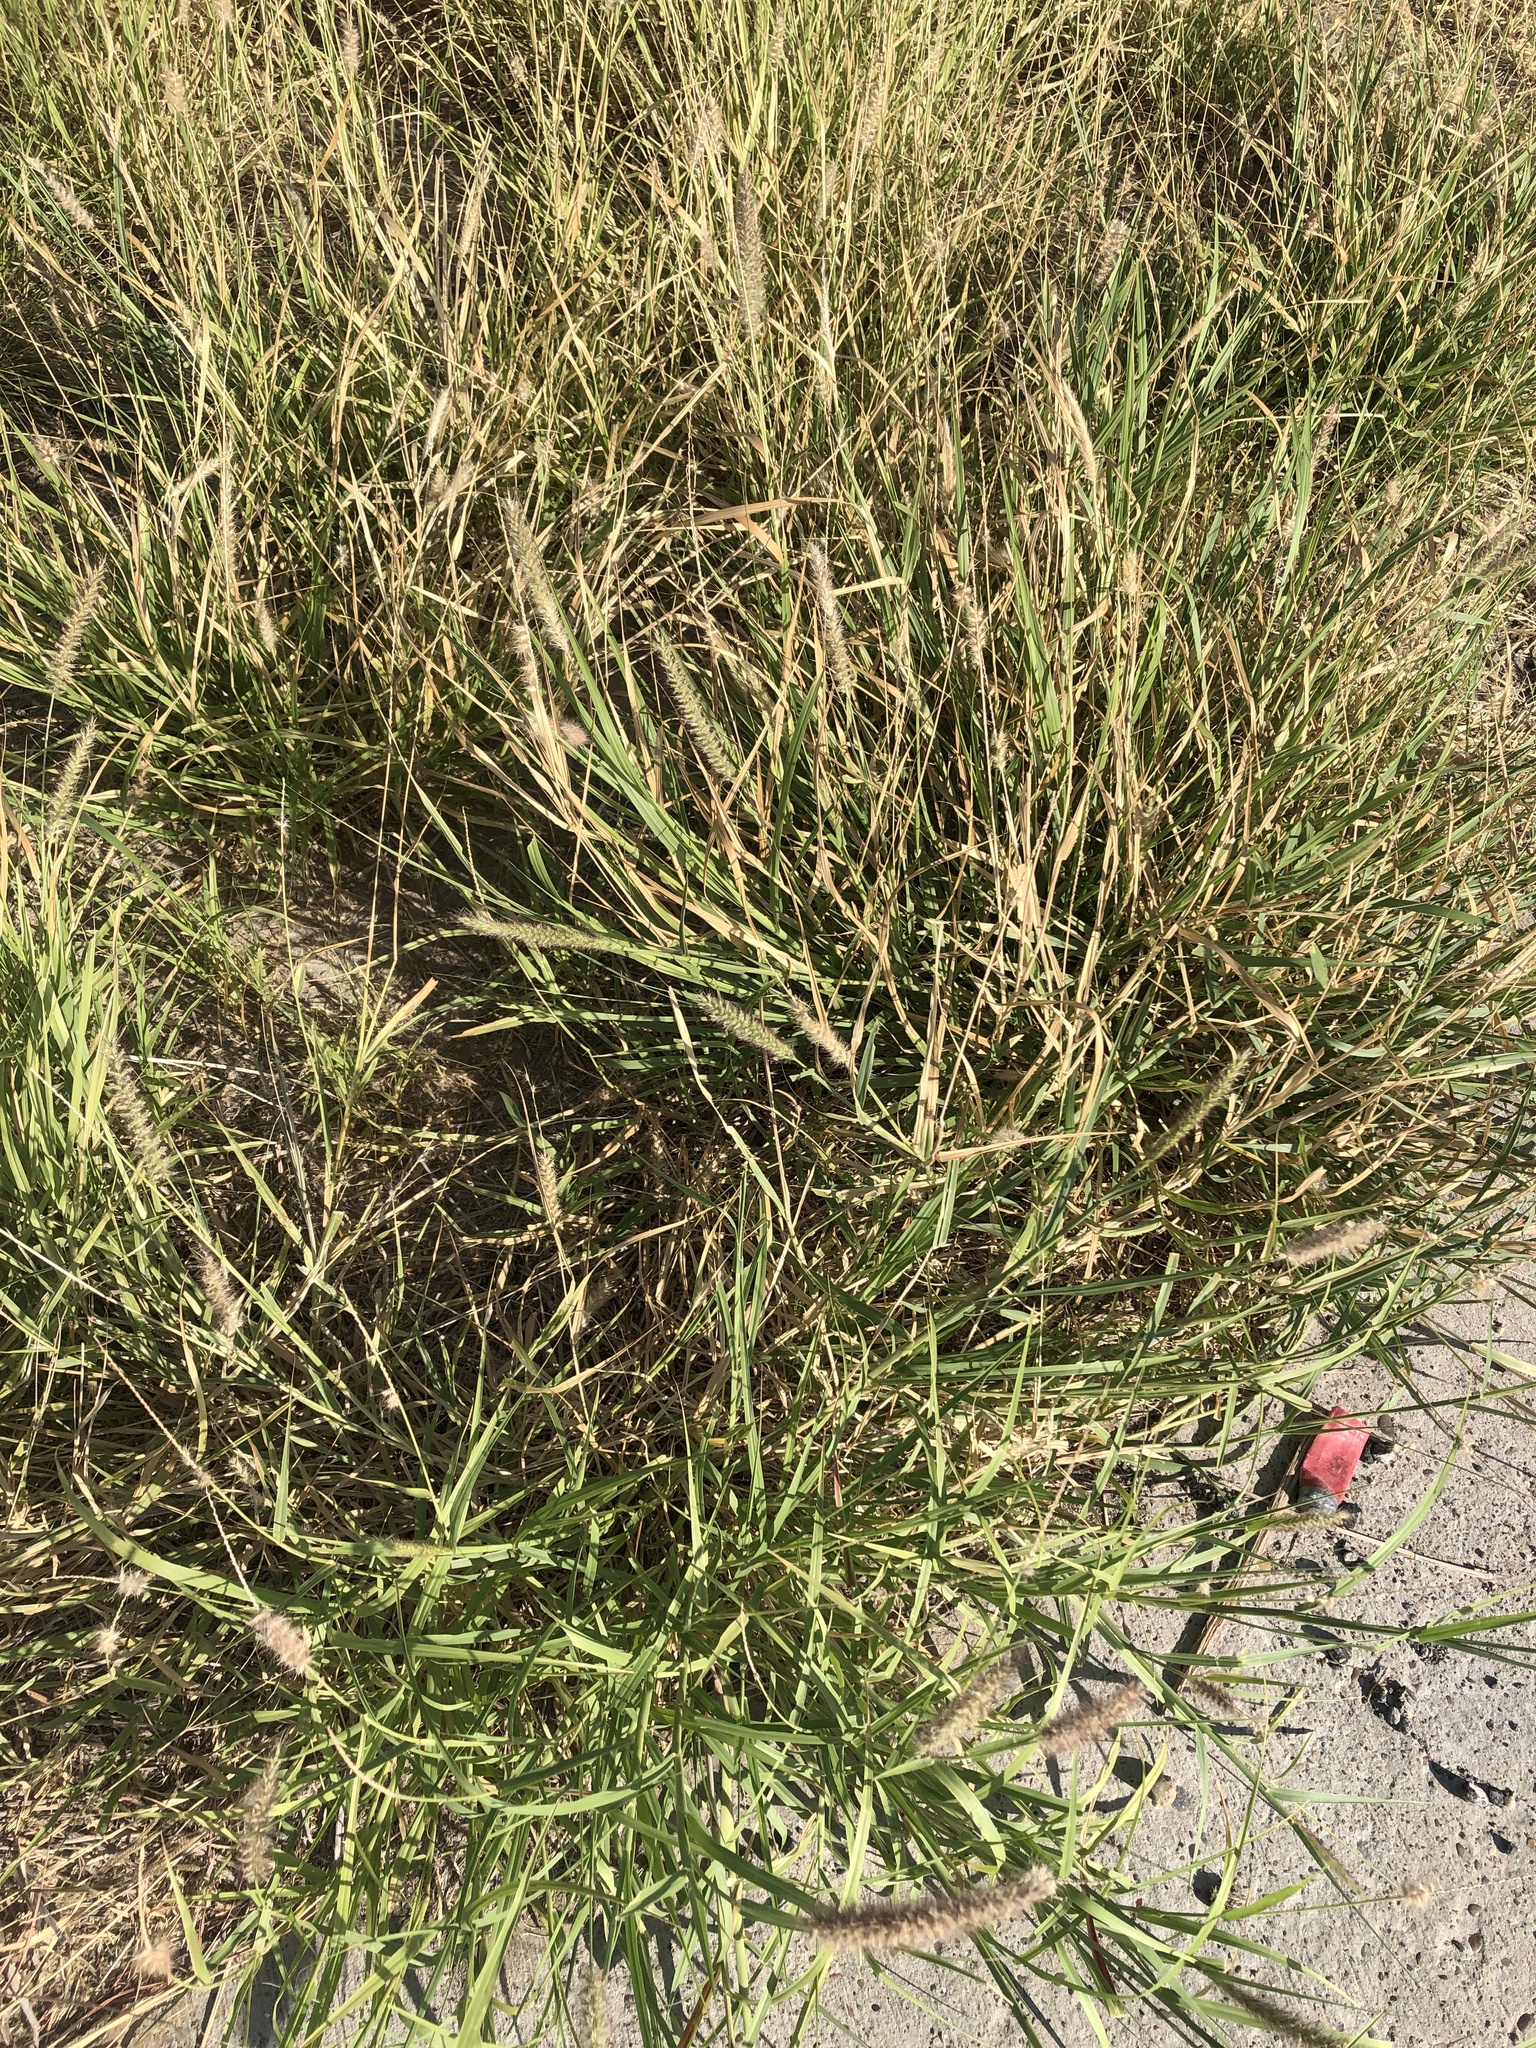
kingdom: Plantae
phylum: Tracheophyta
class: Liliopsida
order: Poales
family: Poaceae
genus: Cenchrus
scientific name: Cenchrus ciliaris
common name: Buffelgrass
